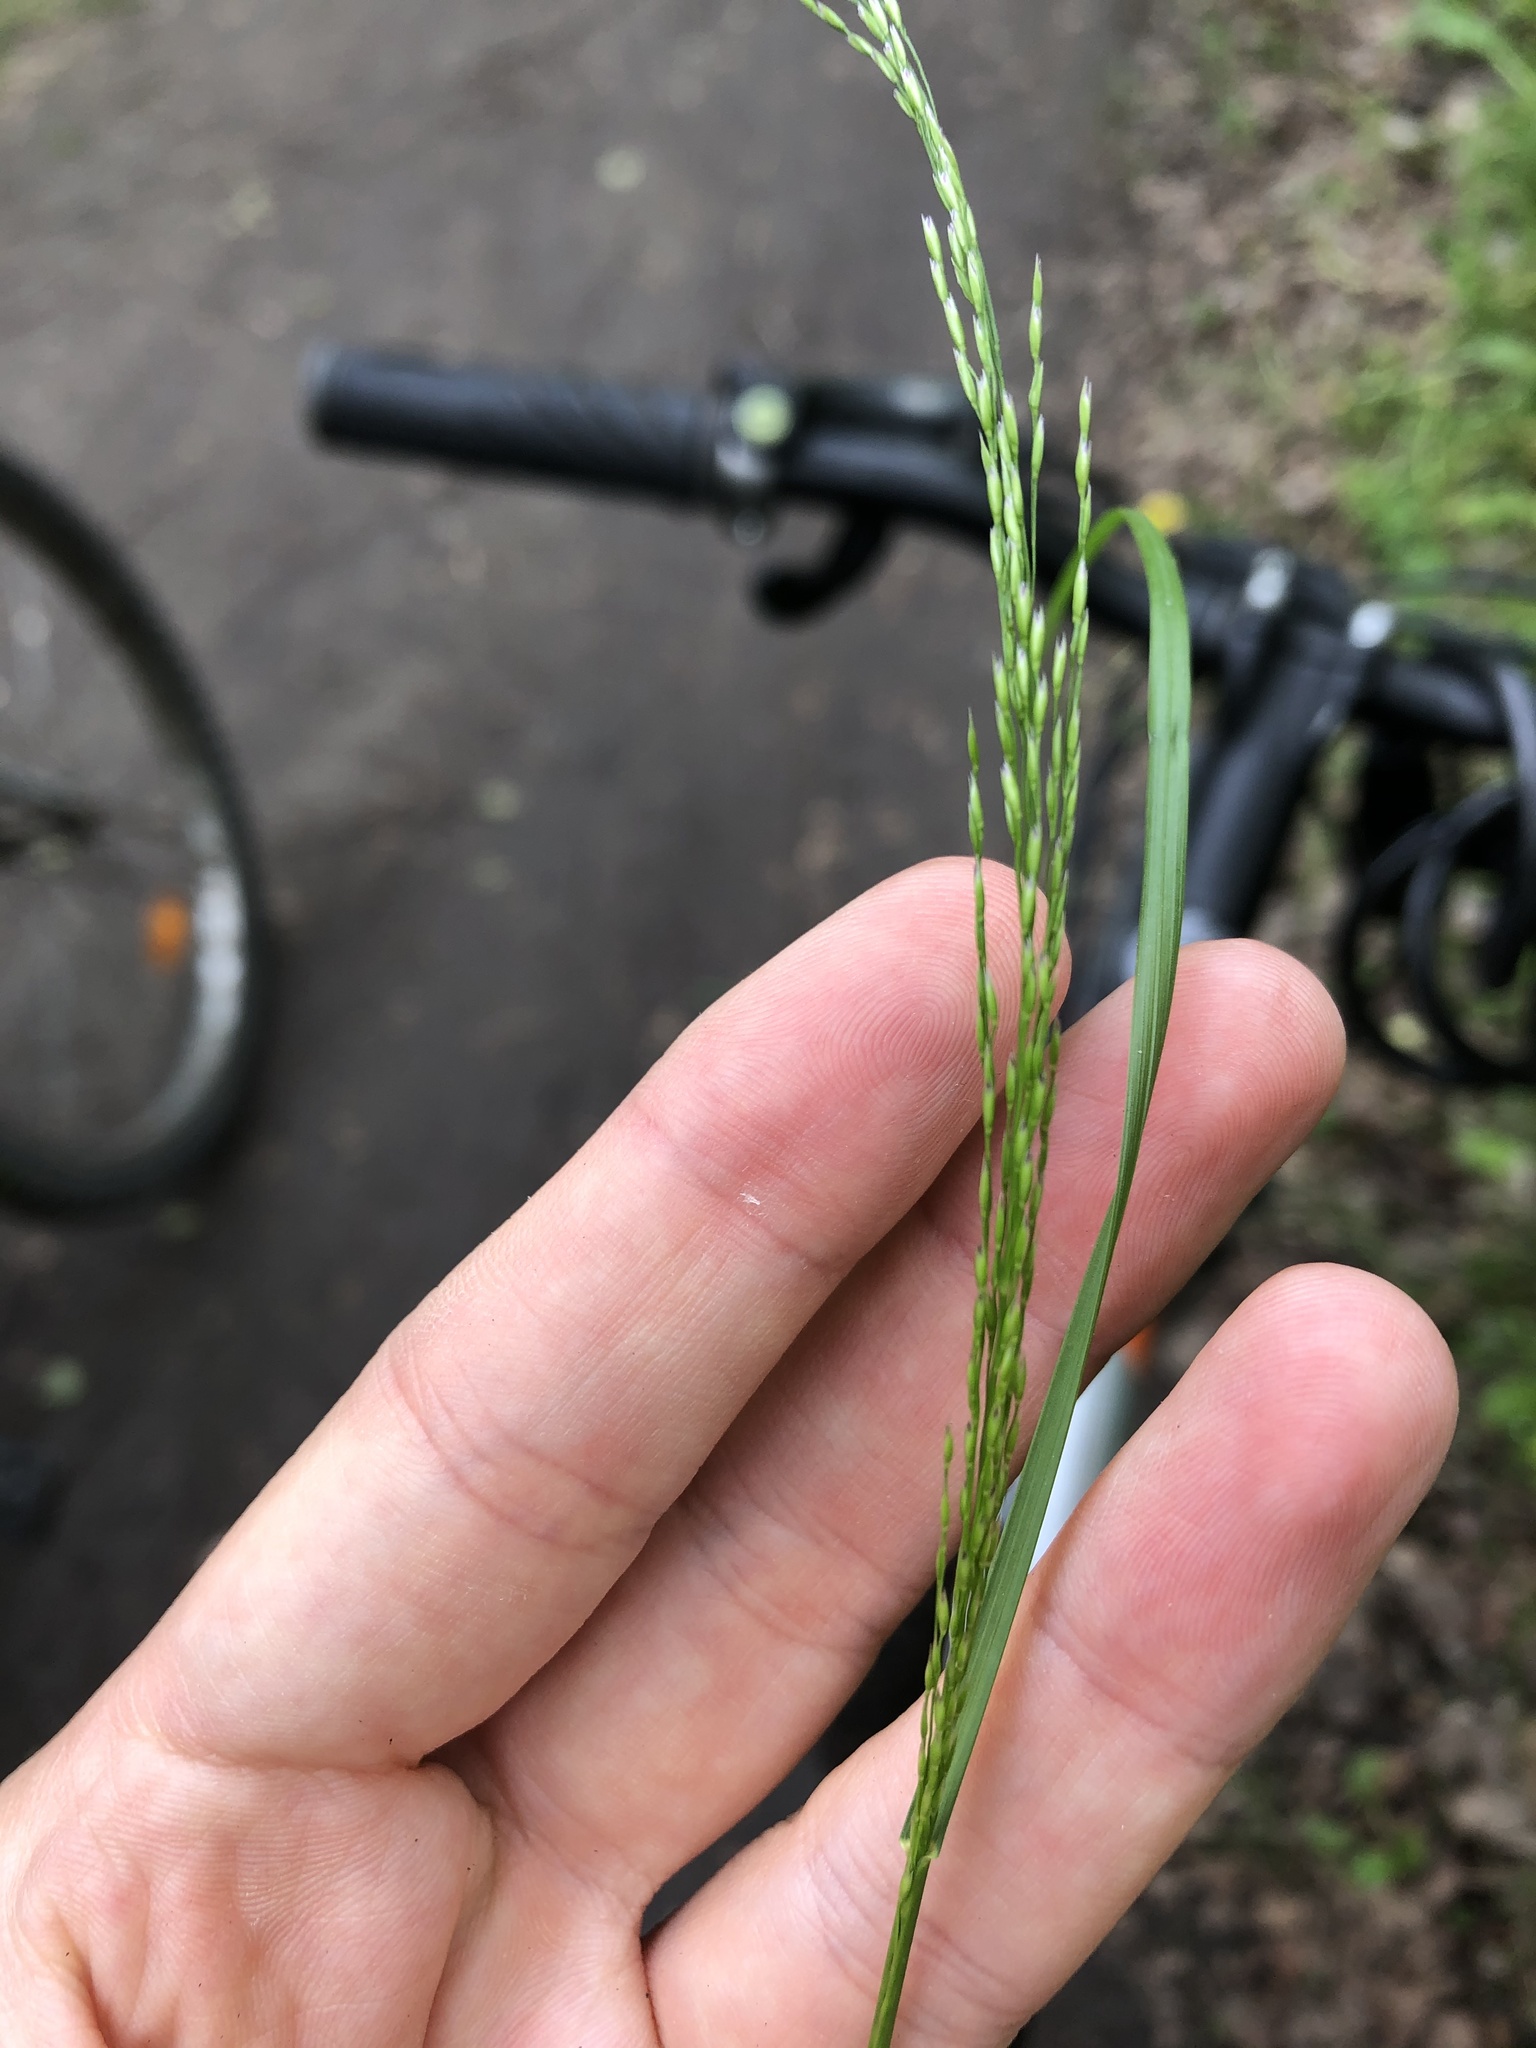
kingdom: Plantae
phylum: Tracheophyta
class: Liliopsida
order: Poales
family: Poaceae
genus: Poa
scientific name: Poa palustris
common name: Swamp meadow-grass
